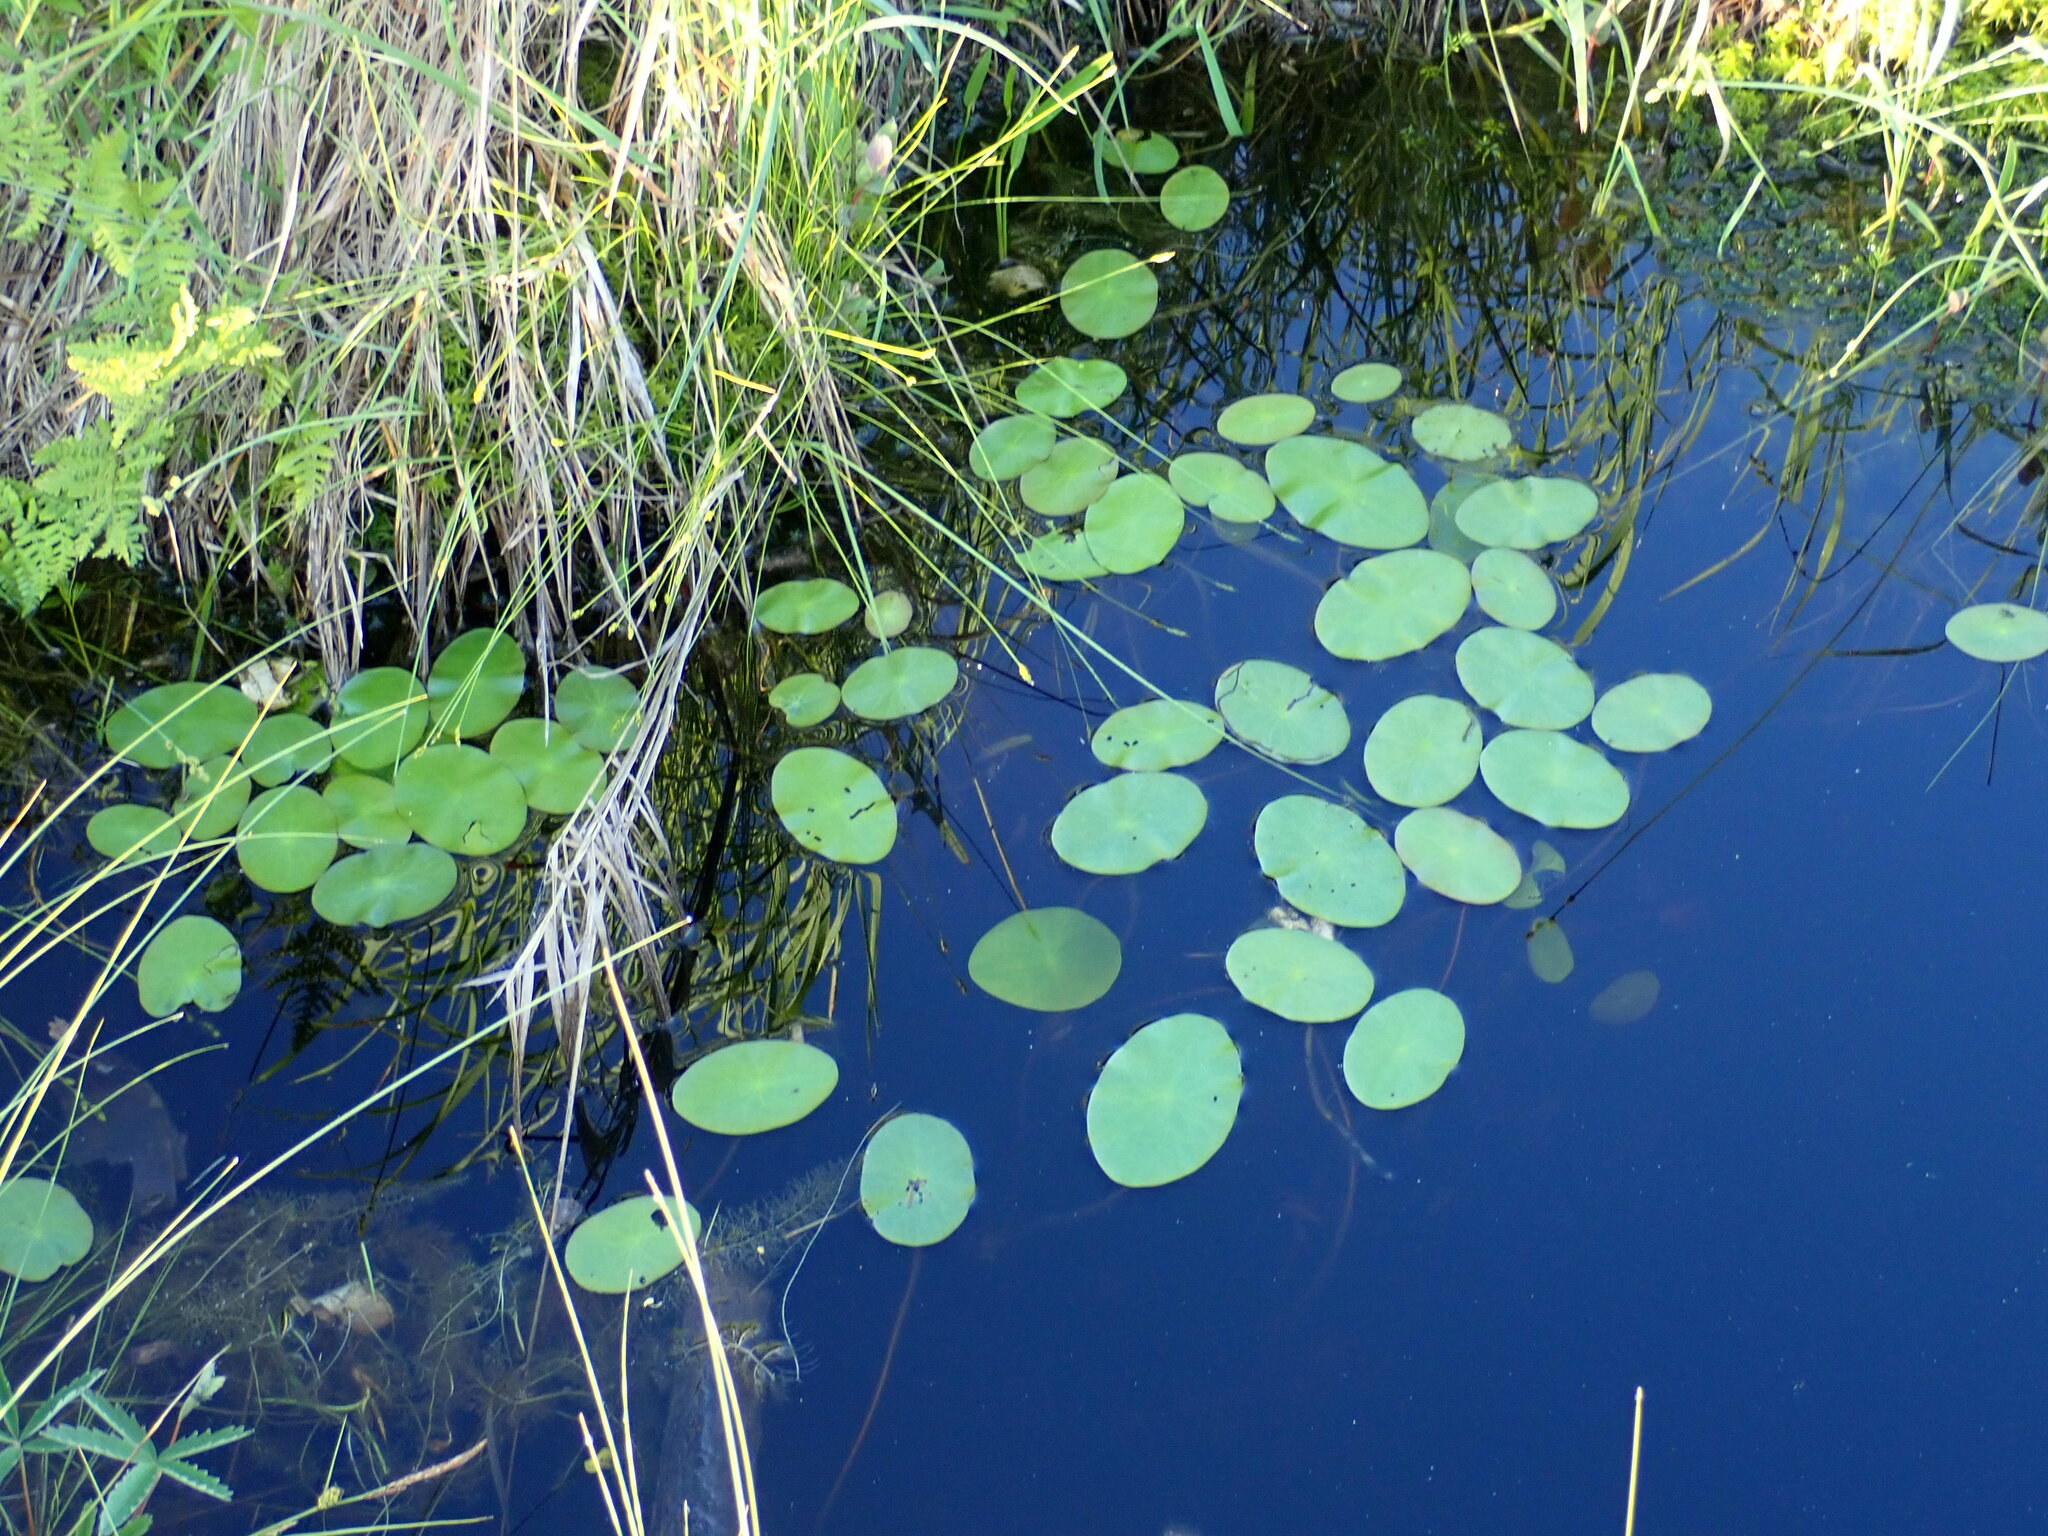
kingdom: Plantae
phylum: Tracheophyta
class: Magnoliopsida
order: Nymphaeales
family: Cabombaceae
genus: Brasenia
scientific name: Brasenia schreberi
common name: Water-shield
